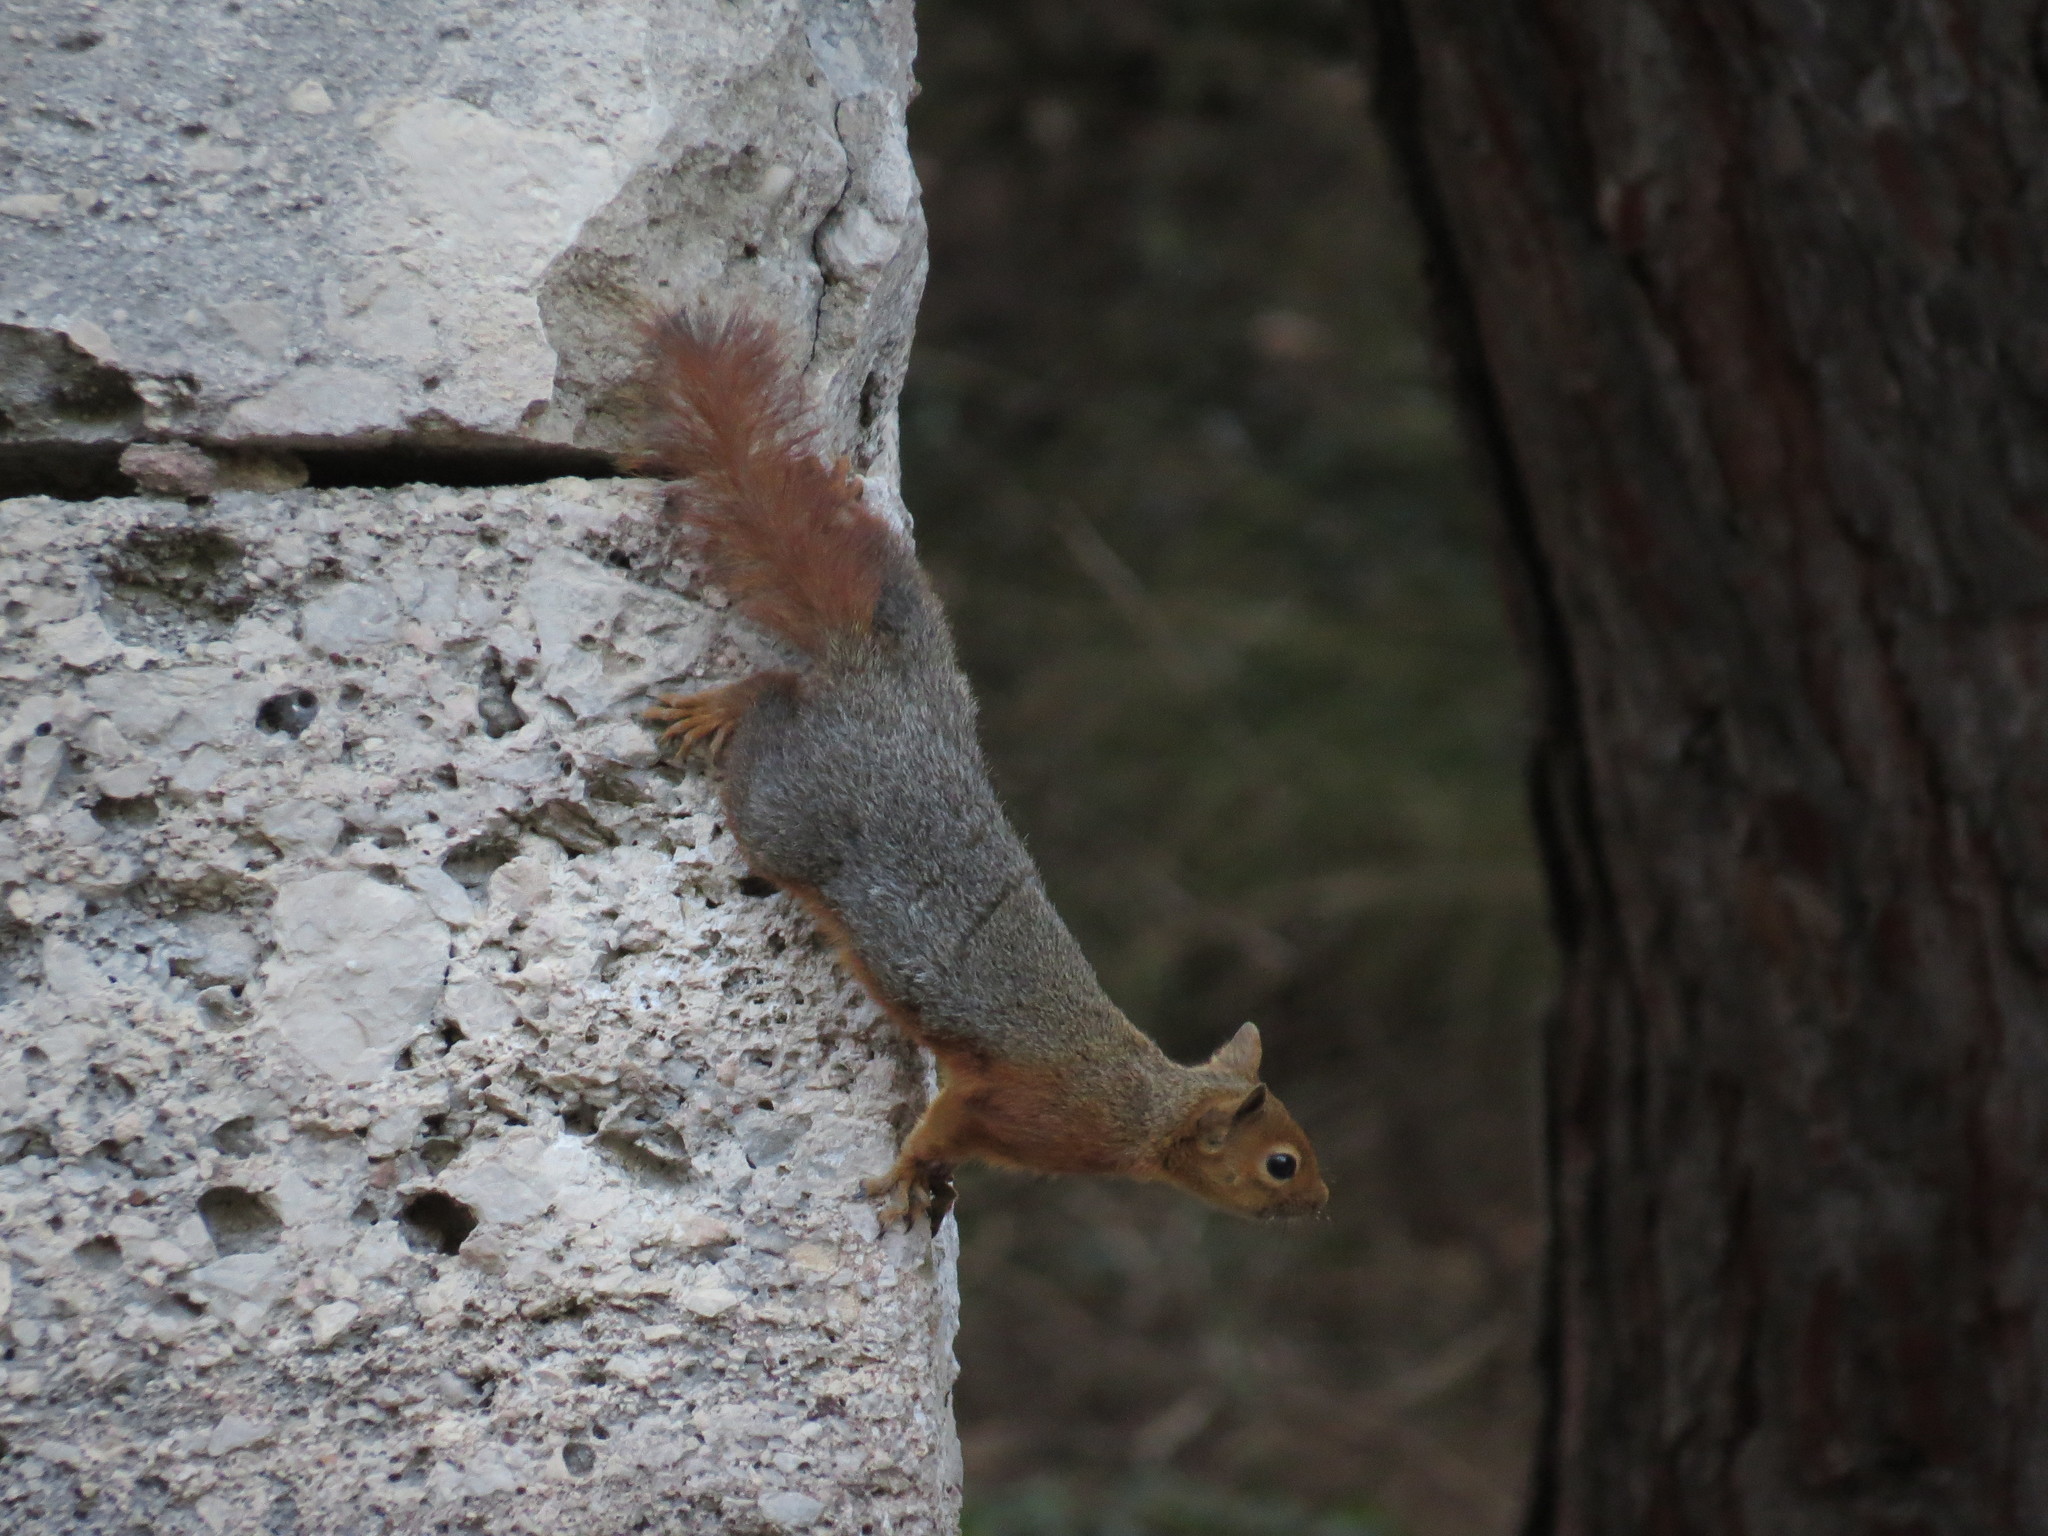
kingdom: Animalia
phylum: Chordata
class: Mammalia
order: Rodentia
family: Sciuridae
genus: Sciurus
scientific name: Sciurus anomalus
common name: Caucasian squirrel
